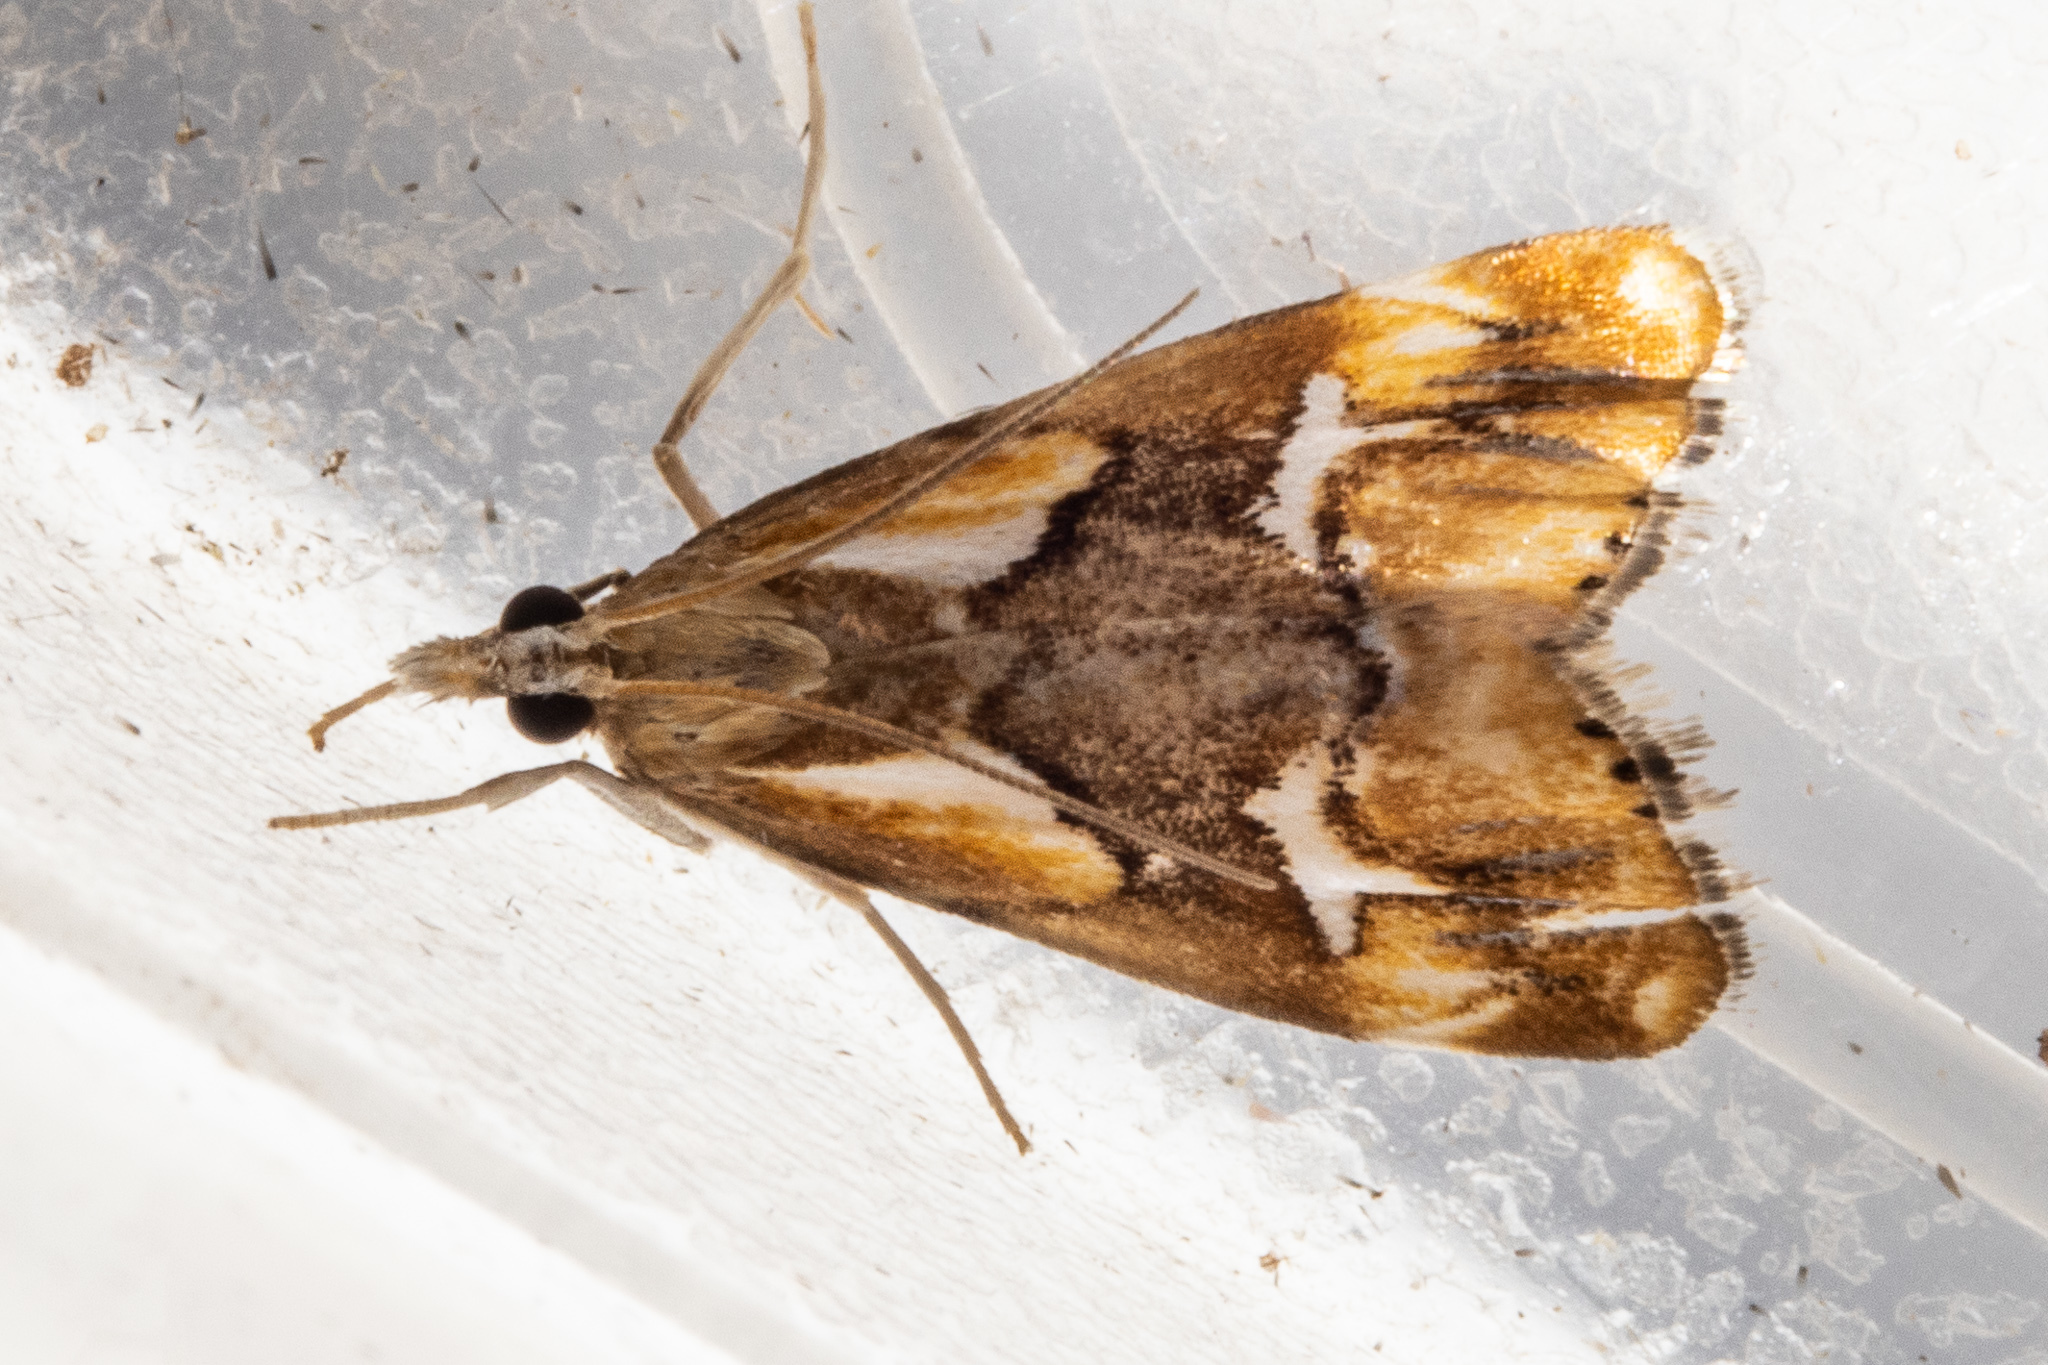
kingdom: Animalia
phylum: Arthropoda
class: Insecta
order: Lepidoptera
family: Crambidae
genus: Glaucocharis
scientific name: Glaucocharis interruptus
